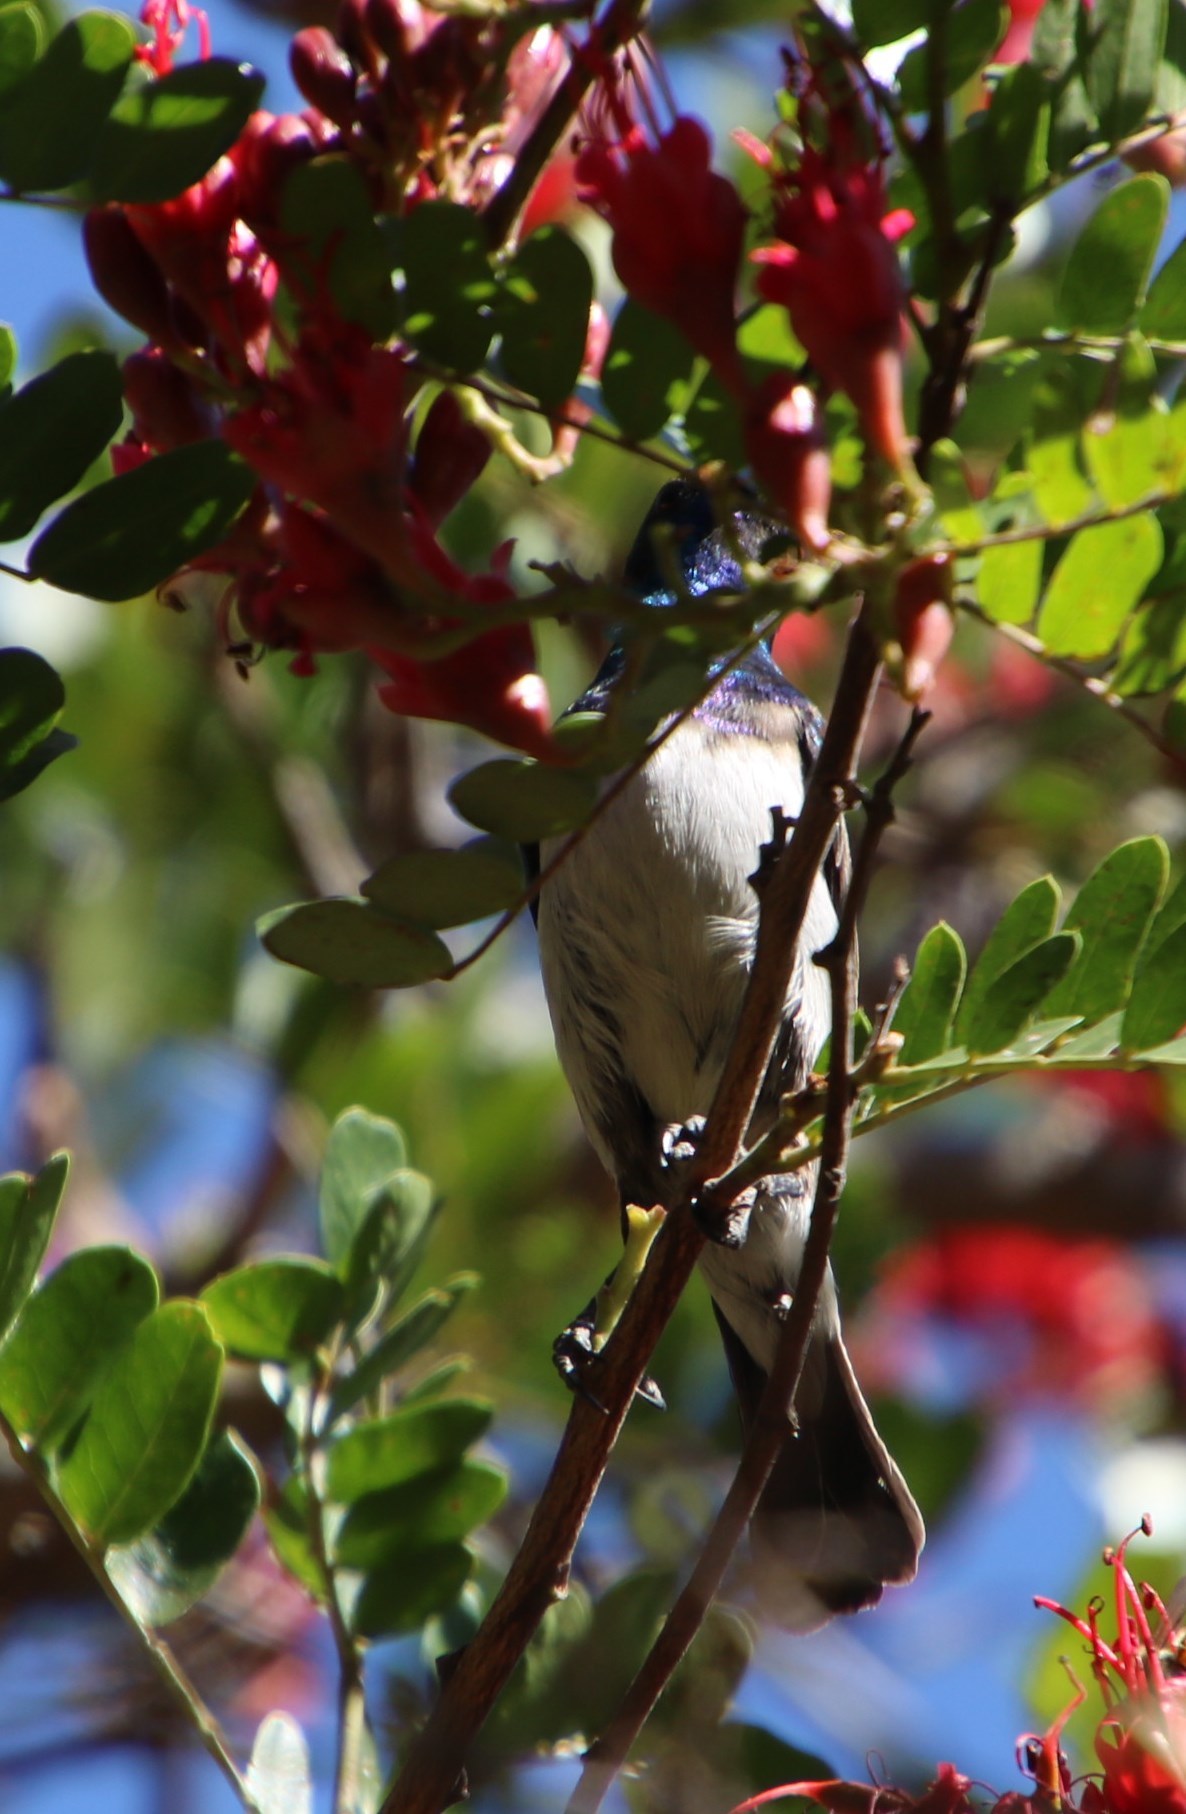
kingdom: Animalia
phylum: Chordata
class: Aves
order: Passeriformes
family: Nectariniidae
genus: Cinnyris
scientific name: Cinnyris talatala
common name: White-bellied sunbird
